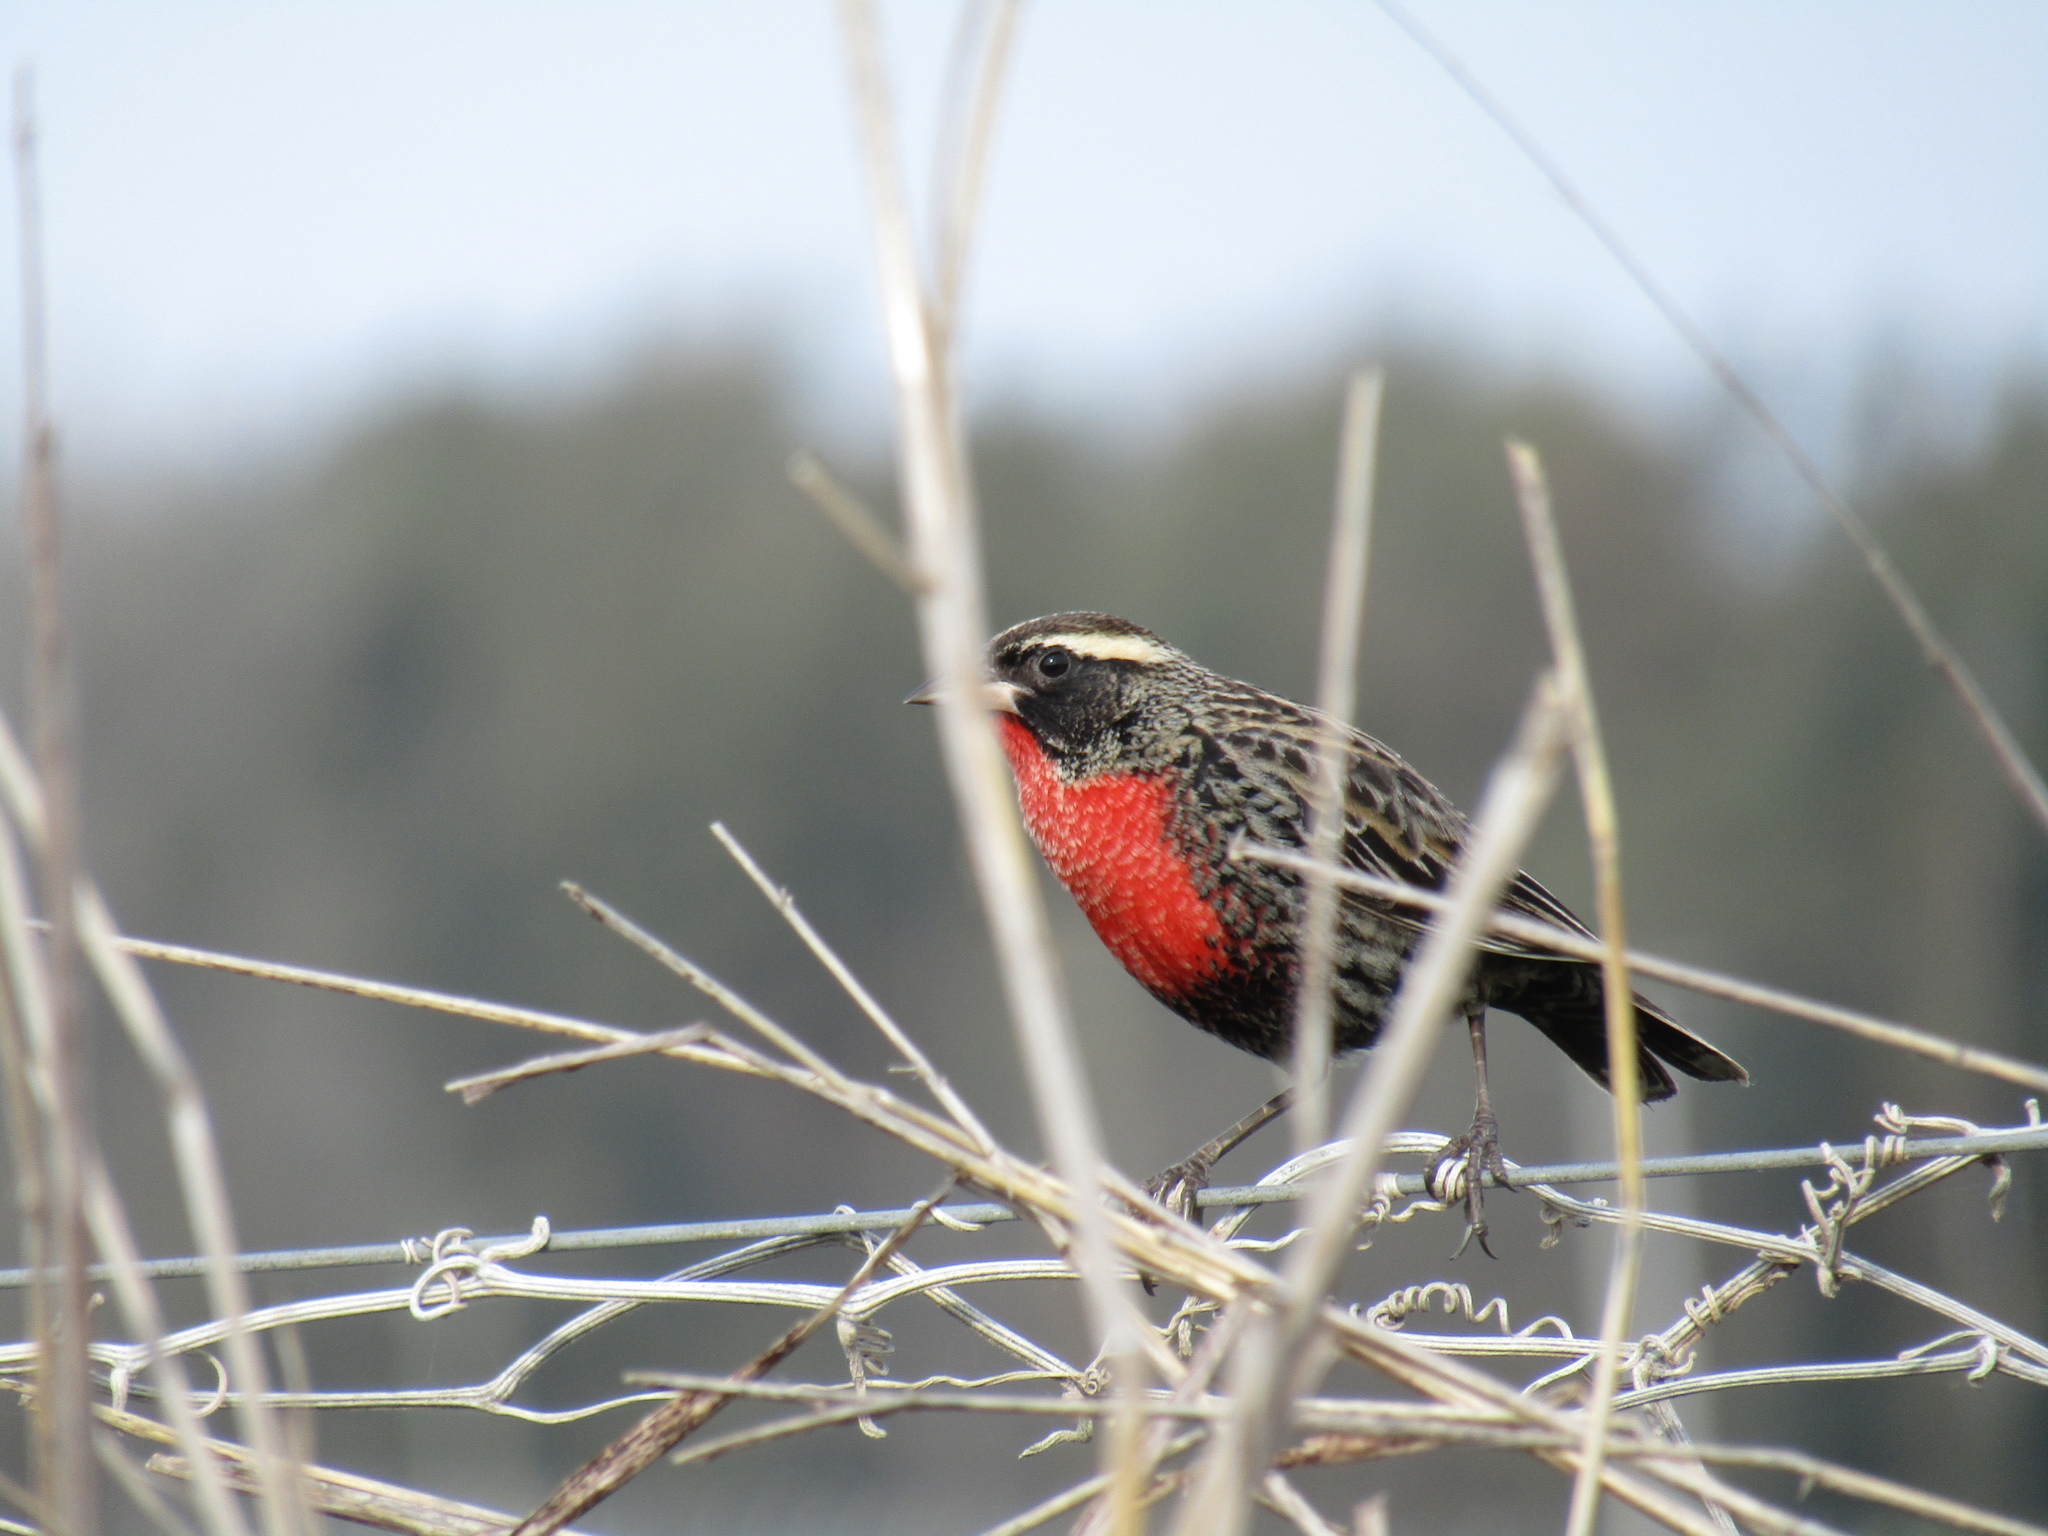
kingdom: Animalia
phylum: Chordata
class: Aves
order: Passeriformes
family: Icteridae
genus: Sturnella
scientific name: Sturnella superciliaris
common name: White-browed blackbird
